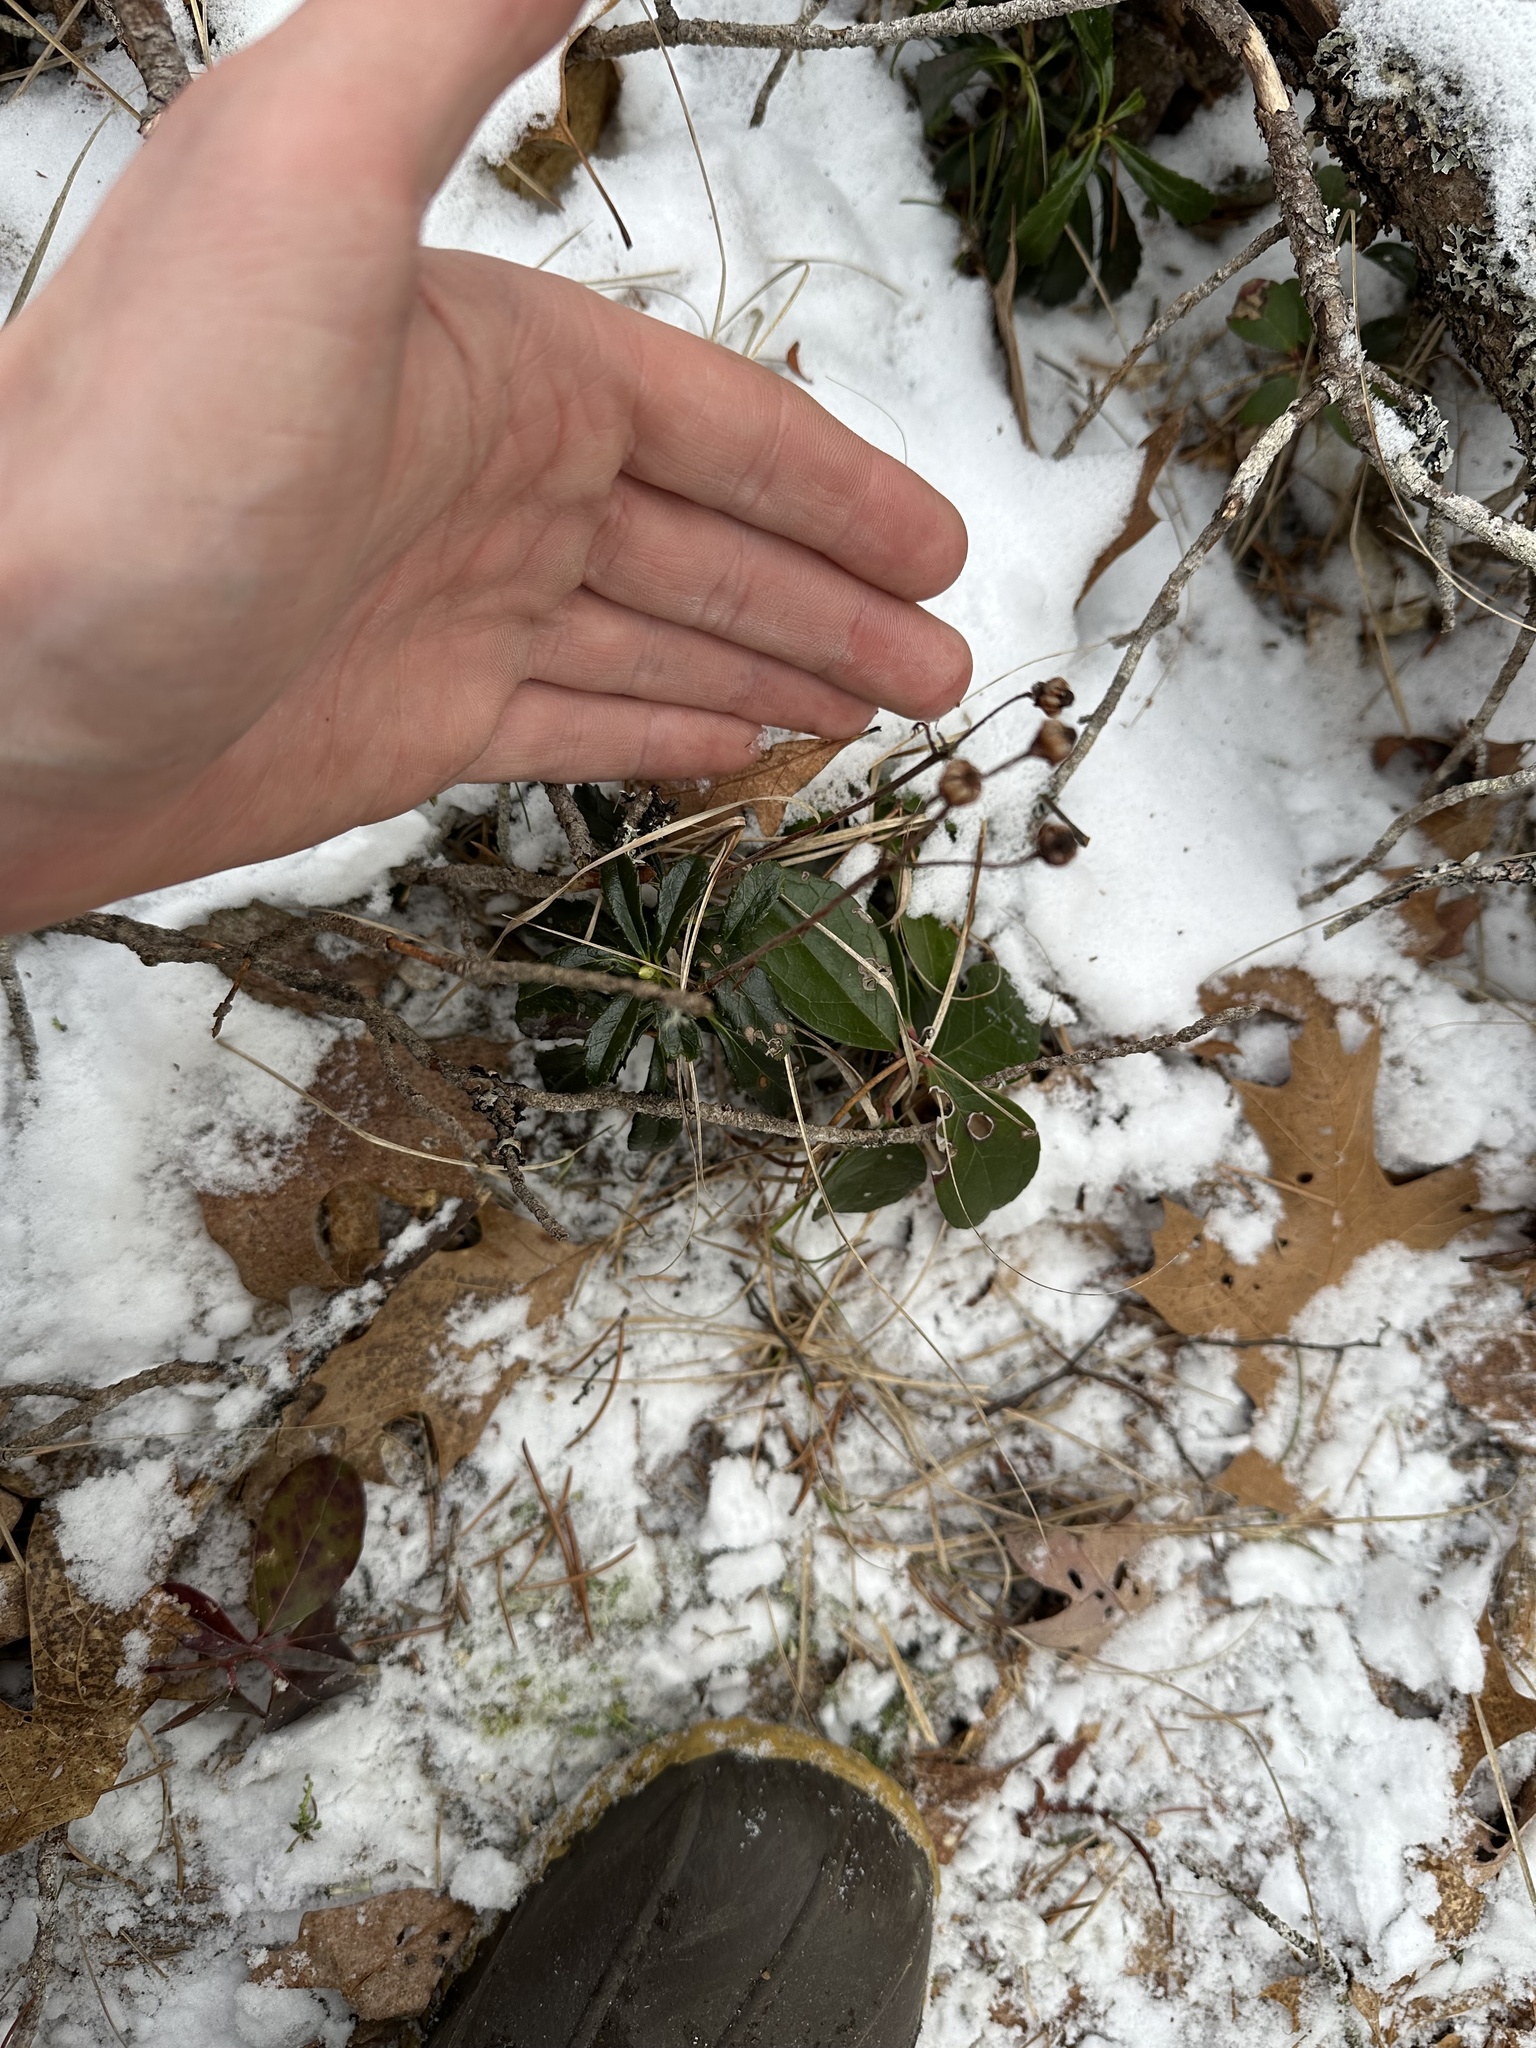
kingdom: Plantae
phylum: Tracheophyta
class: Magnoliopsida
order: Ericales
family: Ericaceae
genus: Chimaphila
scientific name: Chimaphila umbellata
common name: Pipsissewa
